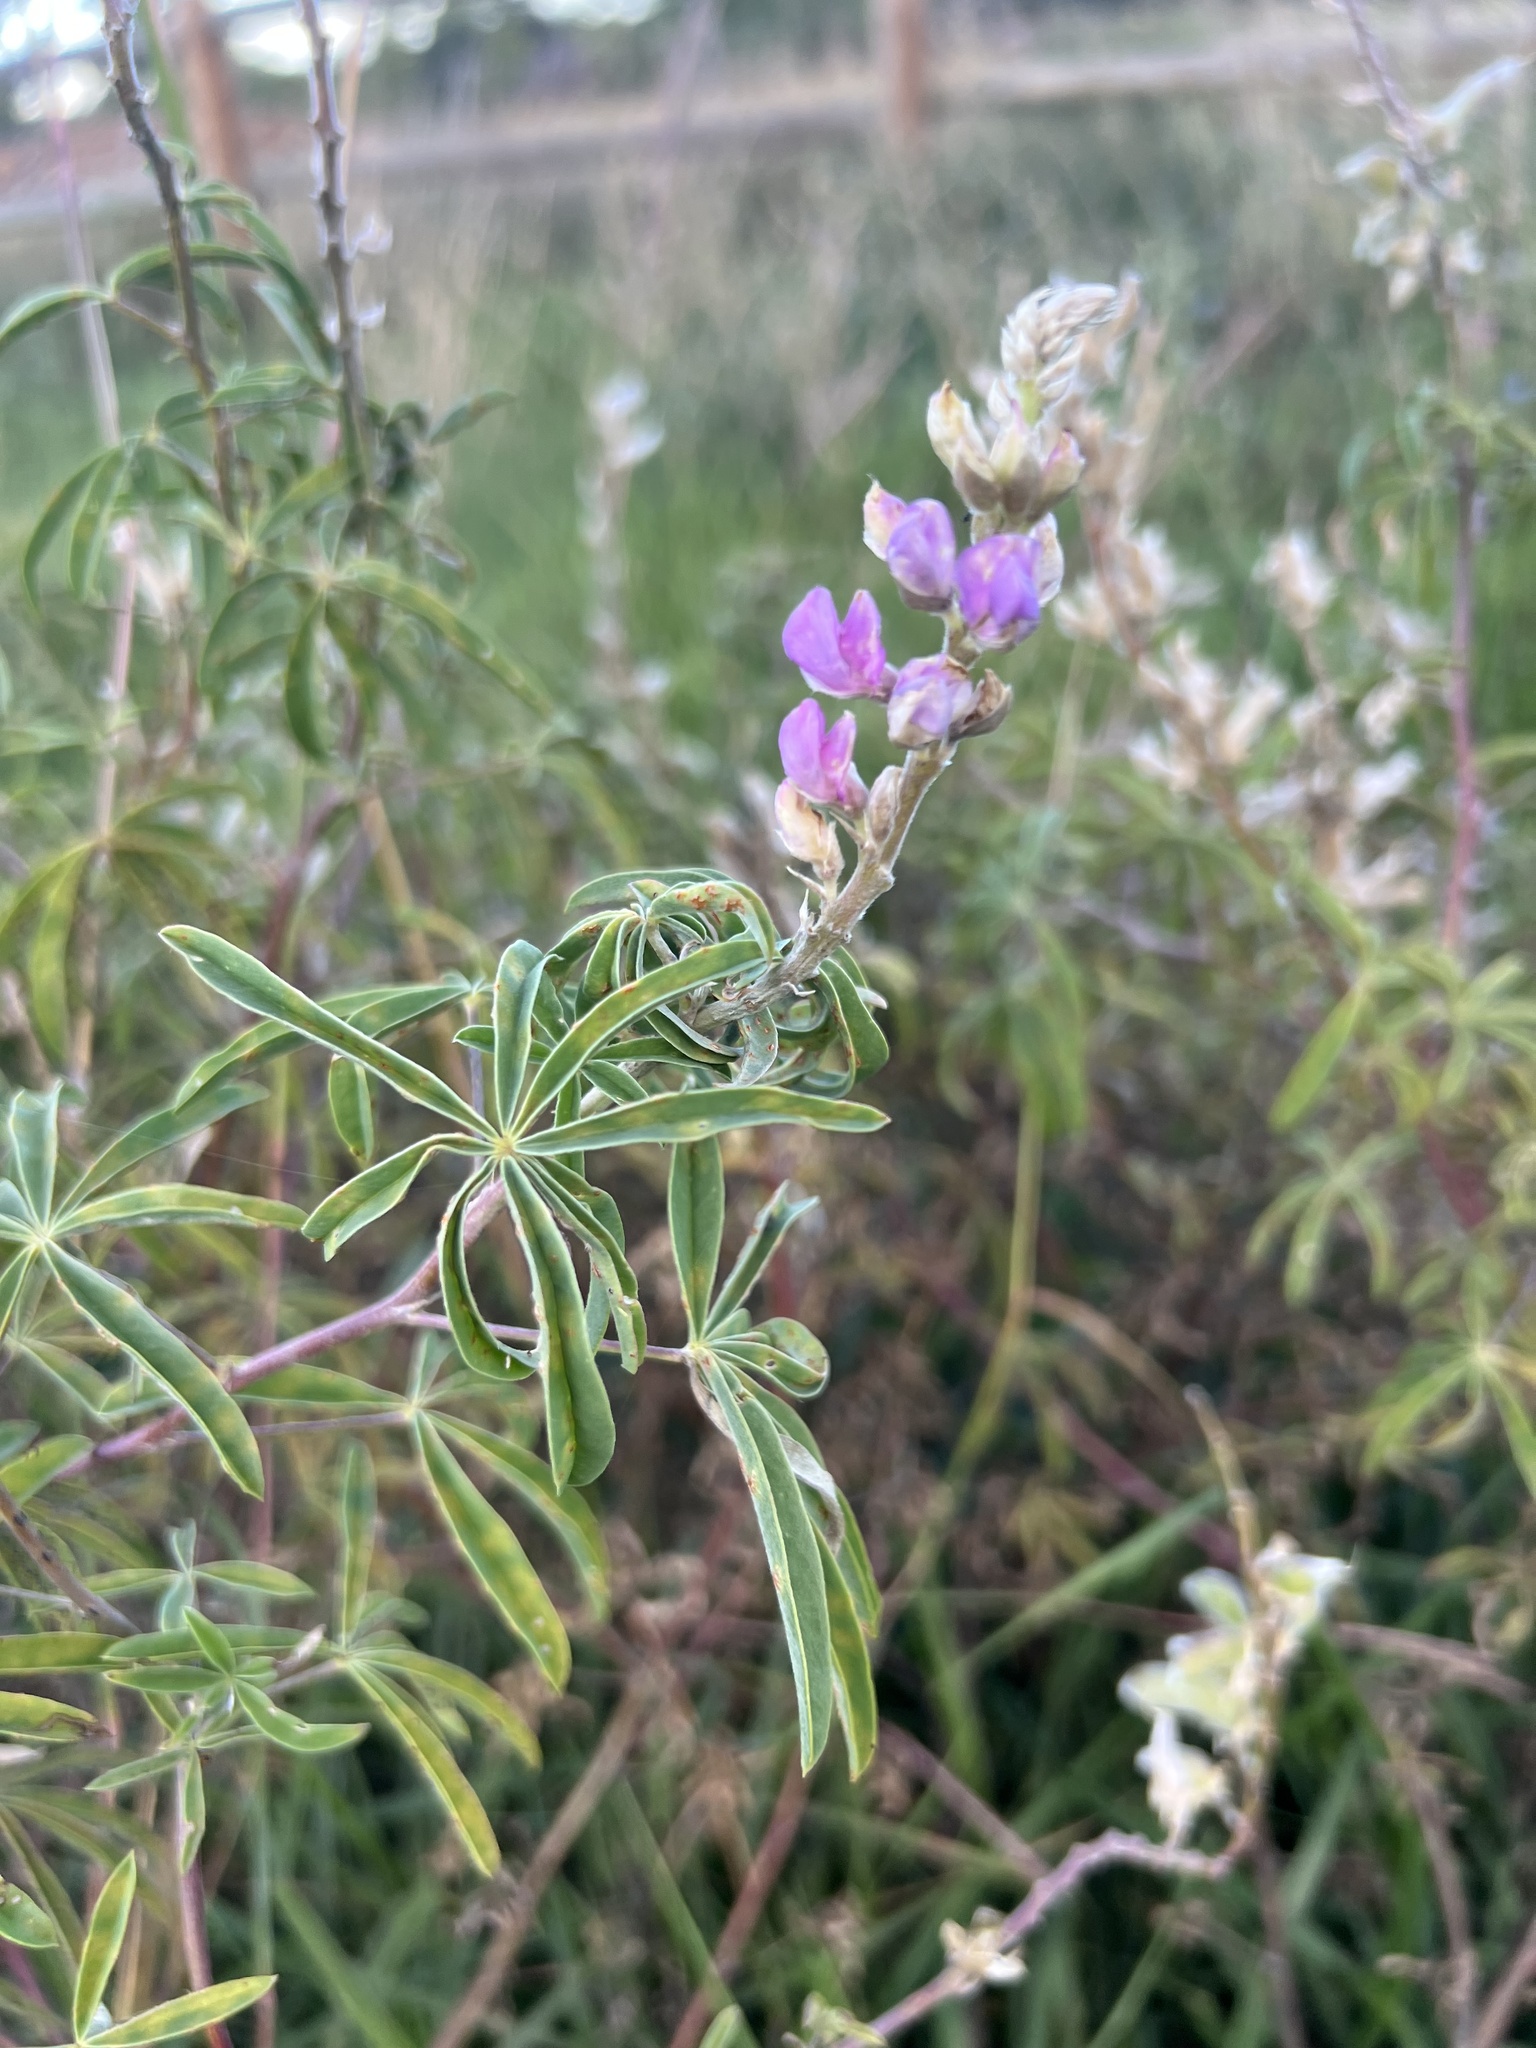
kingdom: Plantae
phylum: Tracheophyta
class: Magnoliopsida
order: Fabales
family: Fabaceae
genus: Lupinus
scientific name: Lupinus argenteus
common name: Silvery lupine
